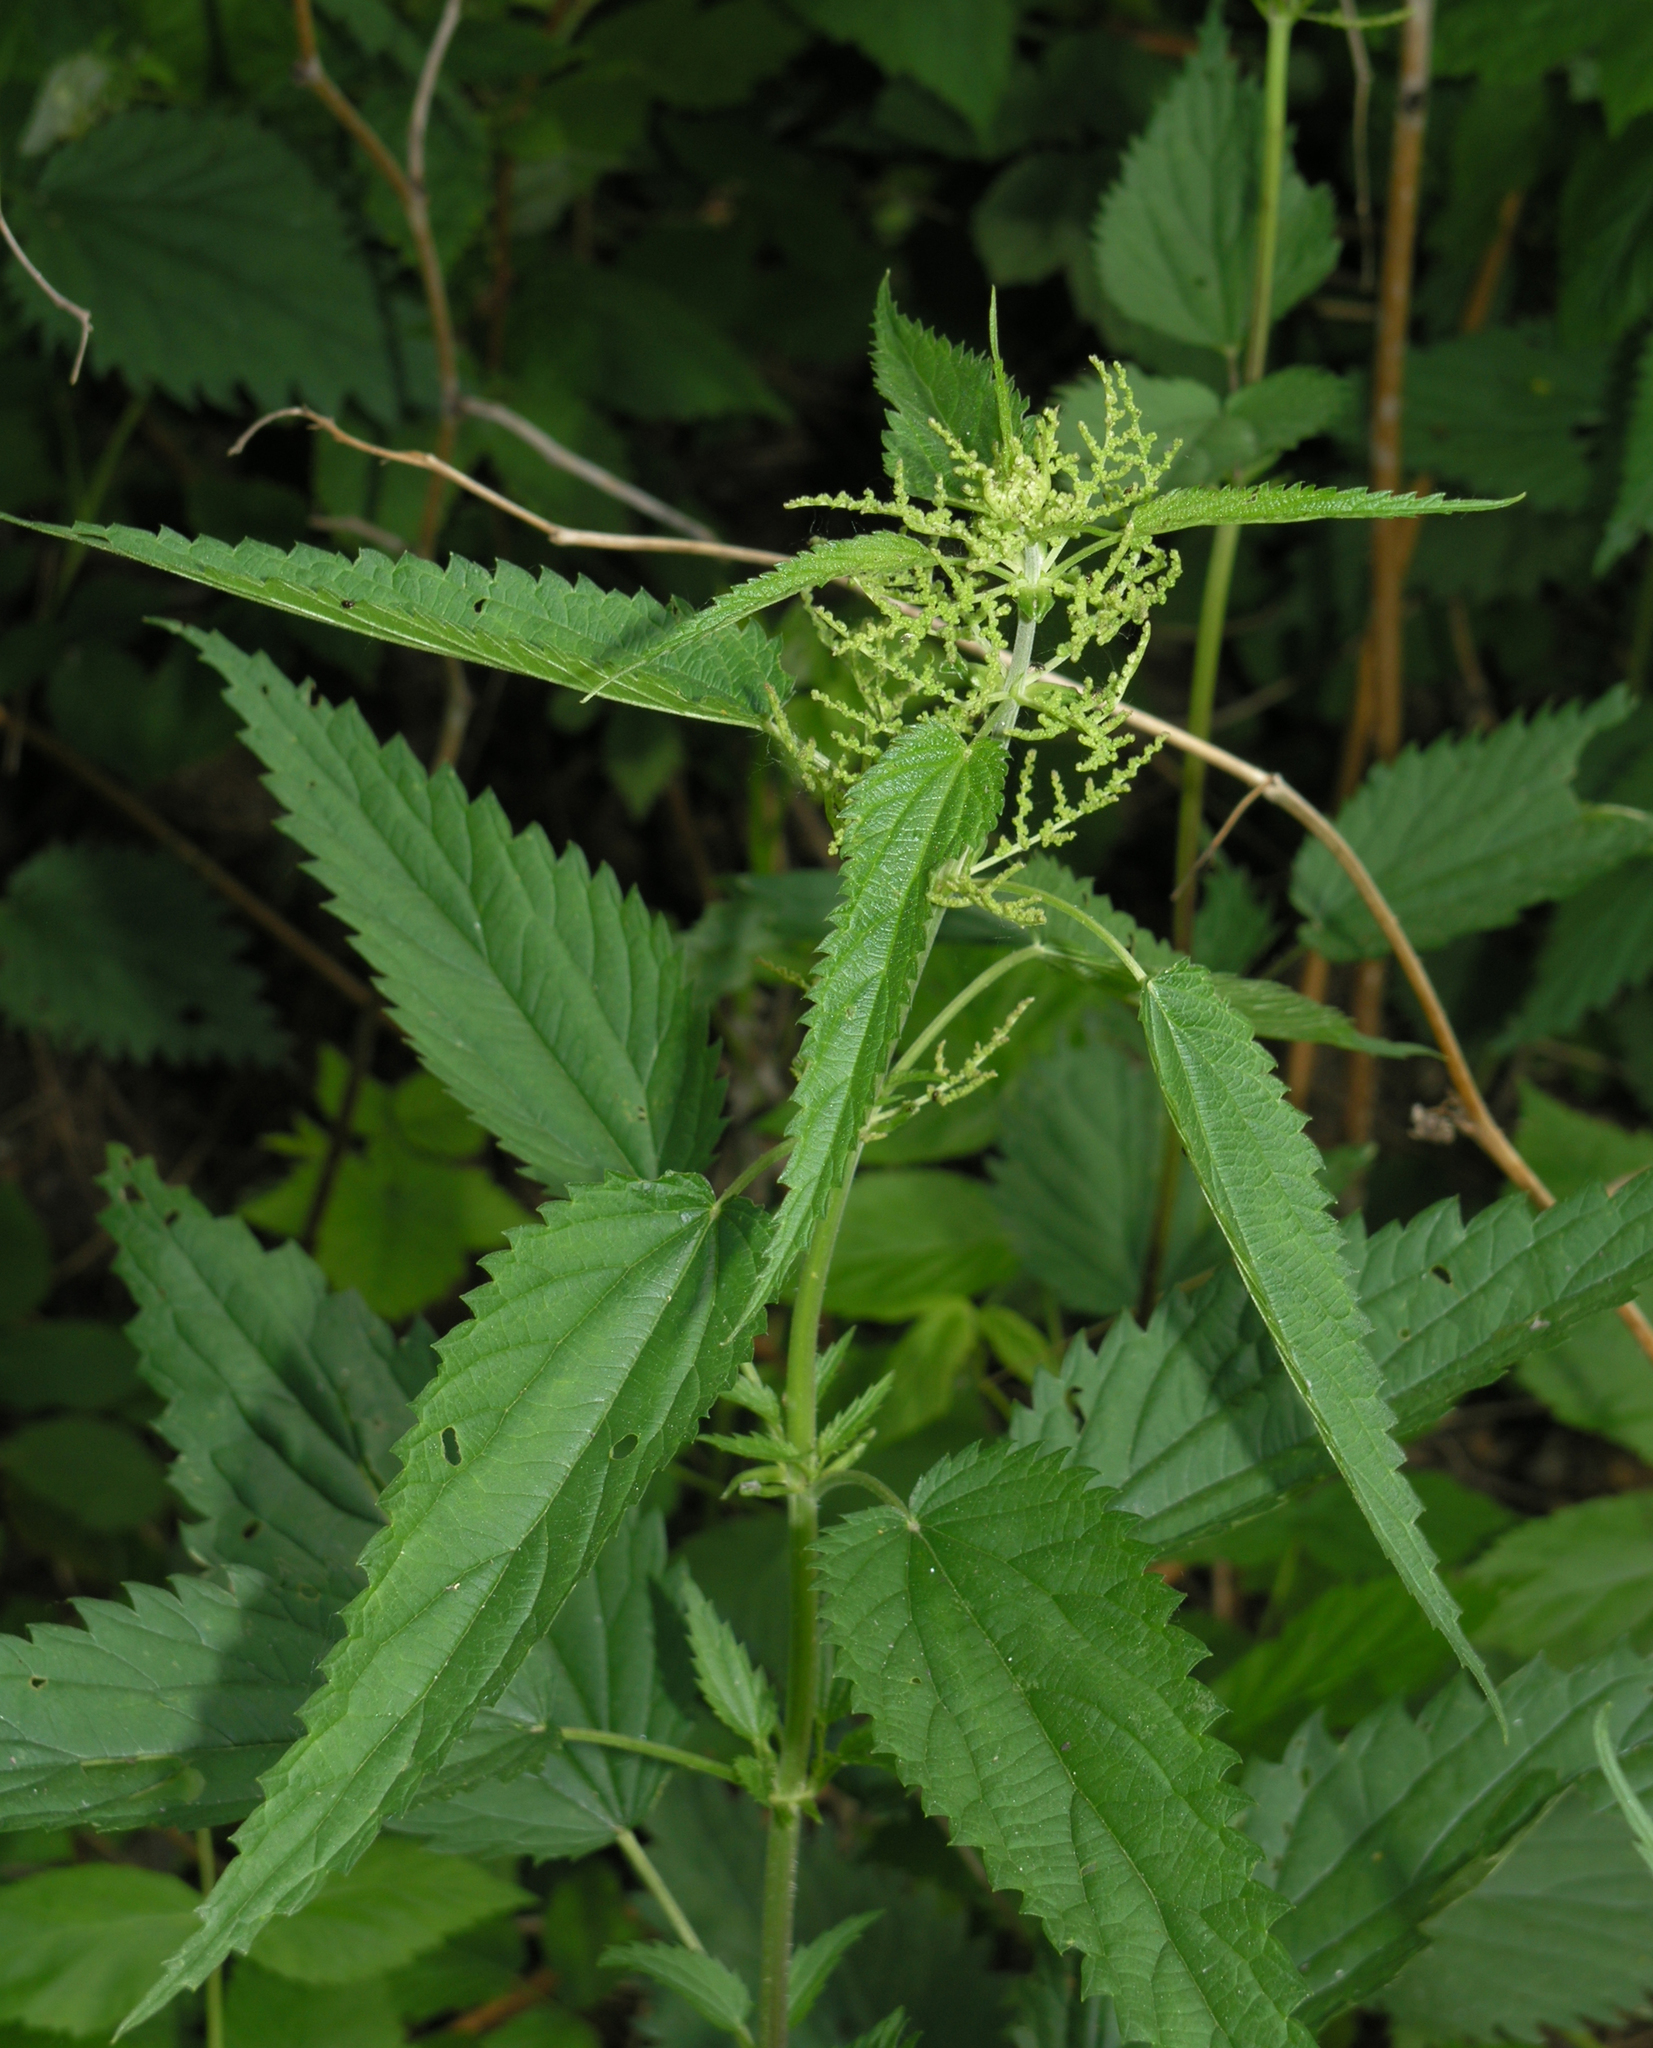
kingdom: Plantae
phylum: Tracheophyta
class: Magnoliopsida
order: Rosales
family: Urticaceae
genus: Urtica
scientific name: Urtica dioica
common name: Common nettle
